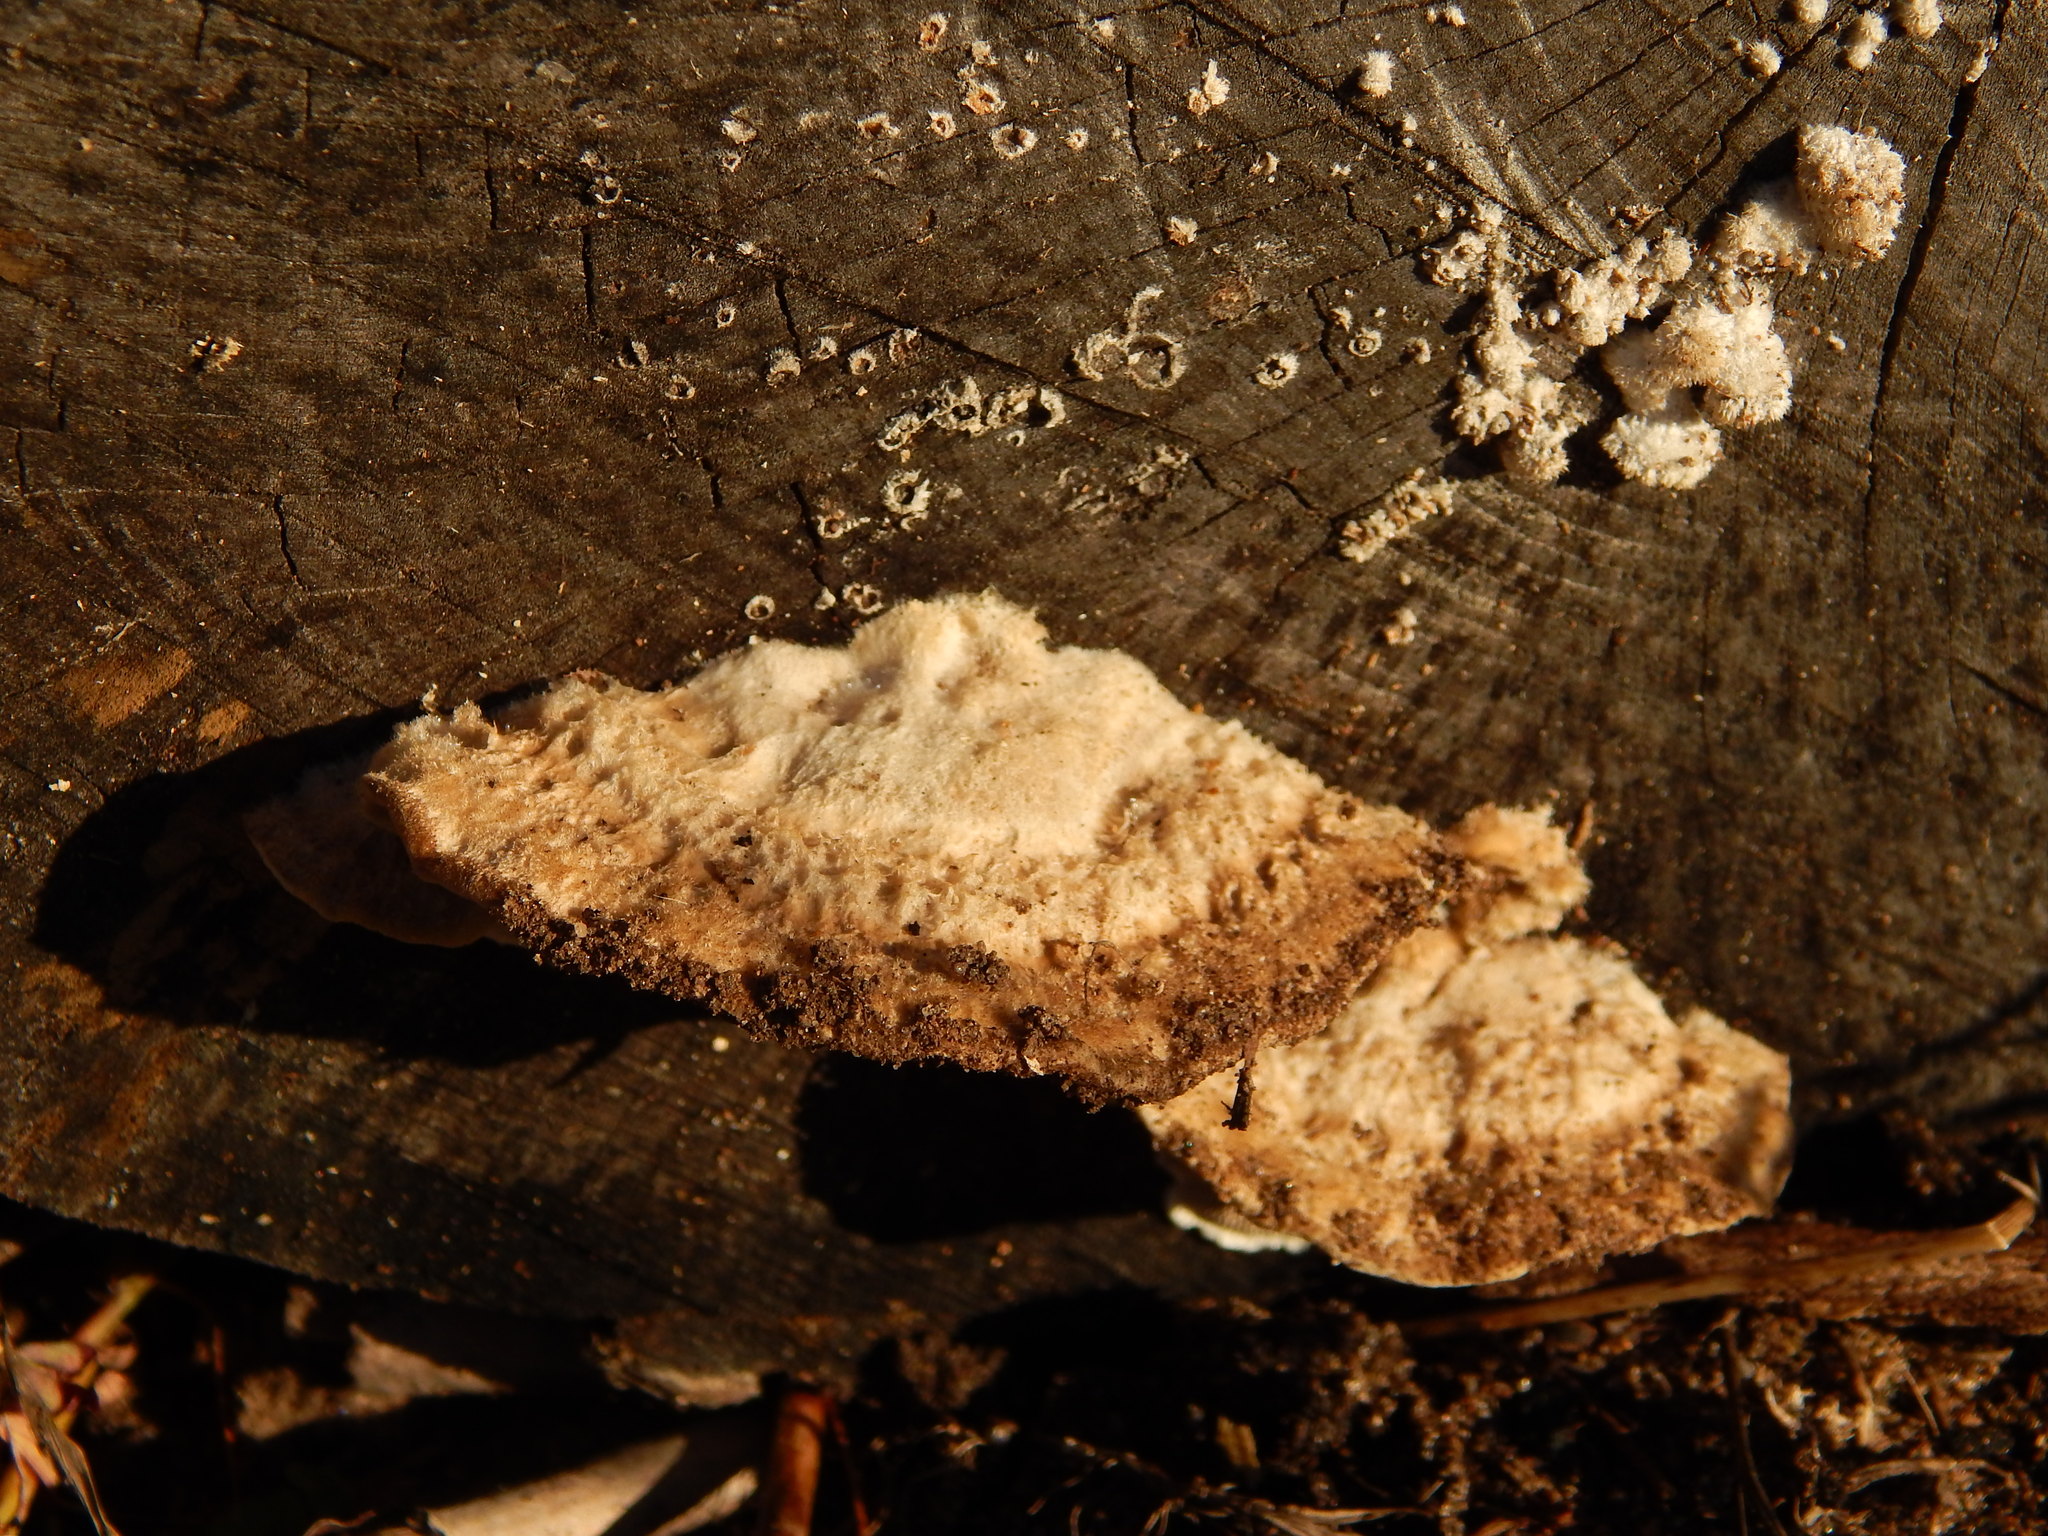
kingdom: Fungi
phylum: Basidiomycota
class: Agaricomycetes
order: Polyporales
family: Fomitopsidaceae
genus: Fomitopsis
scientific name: Fomitopsis
